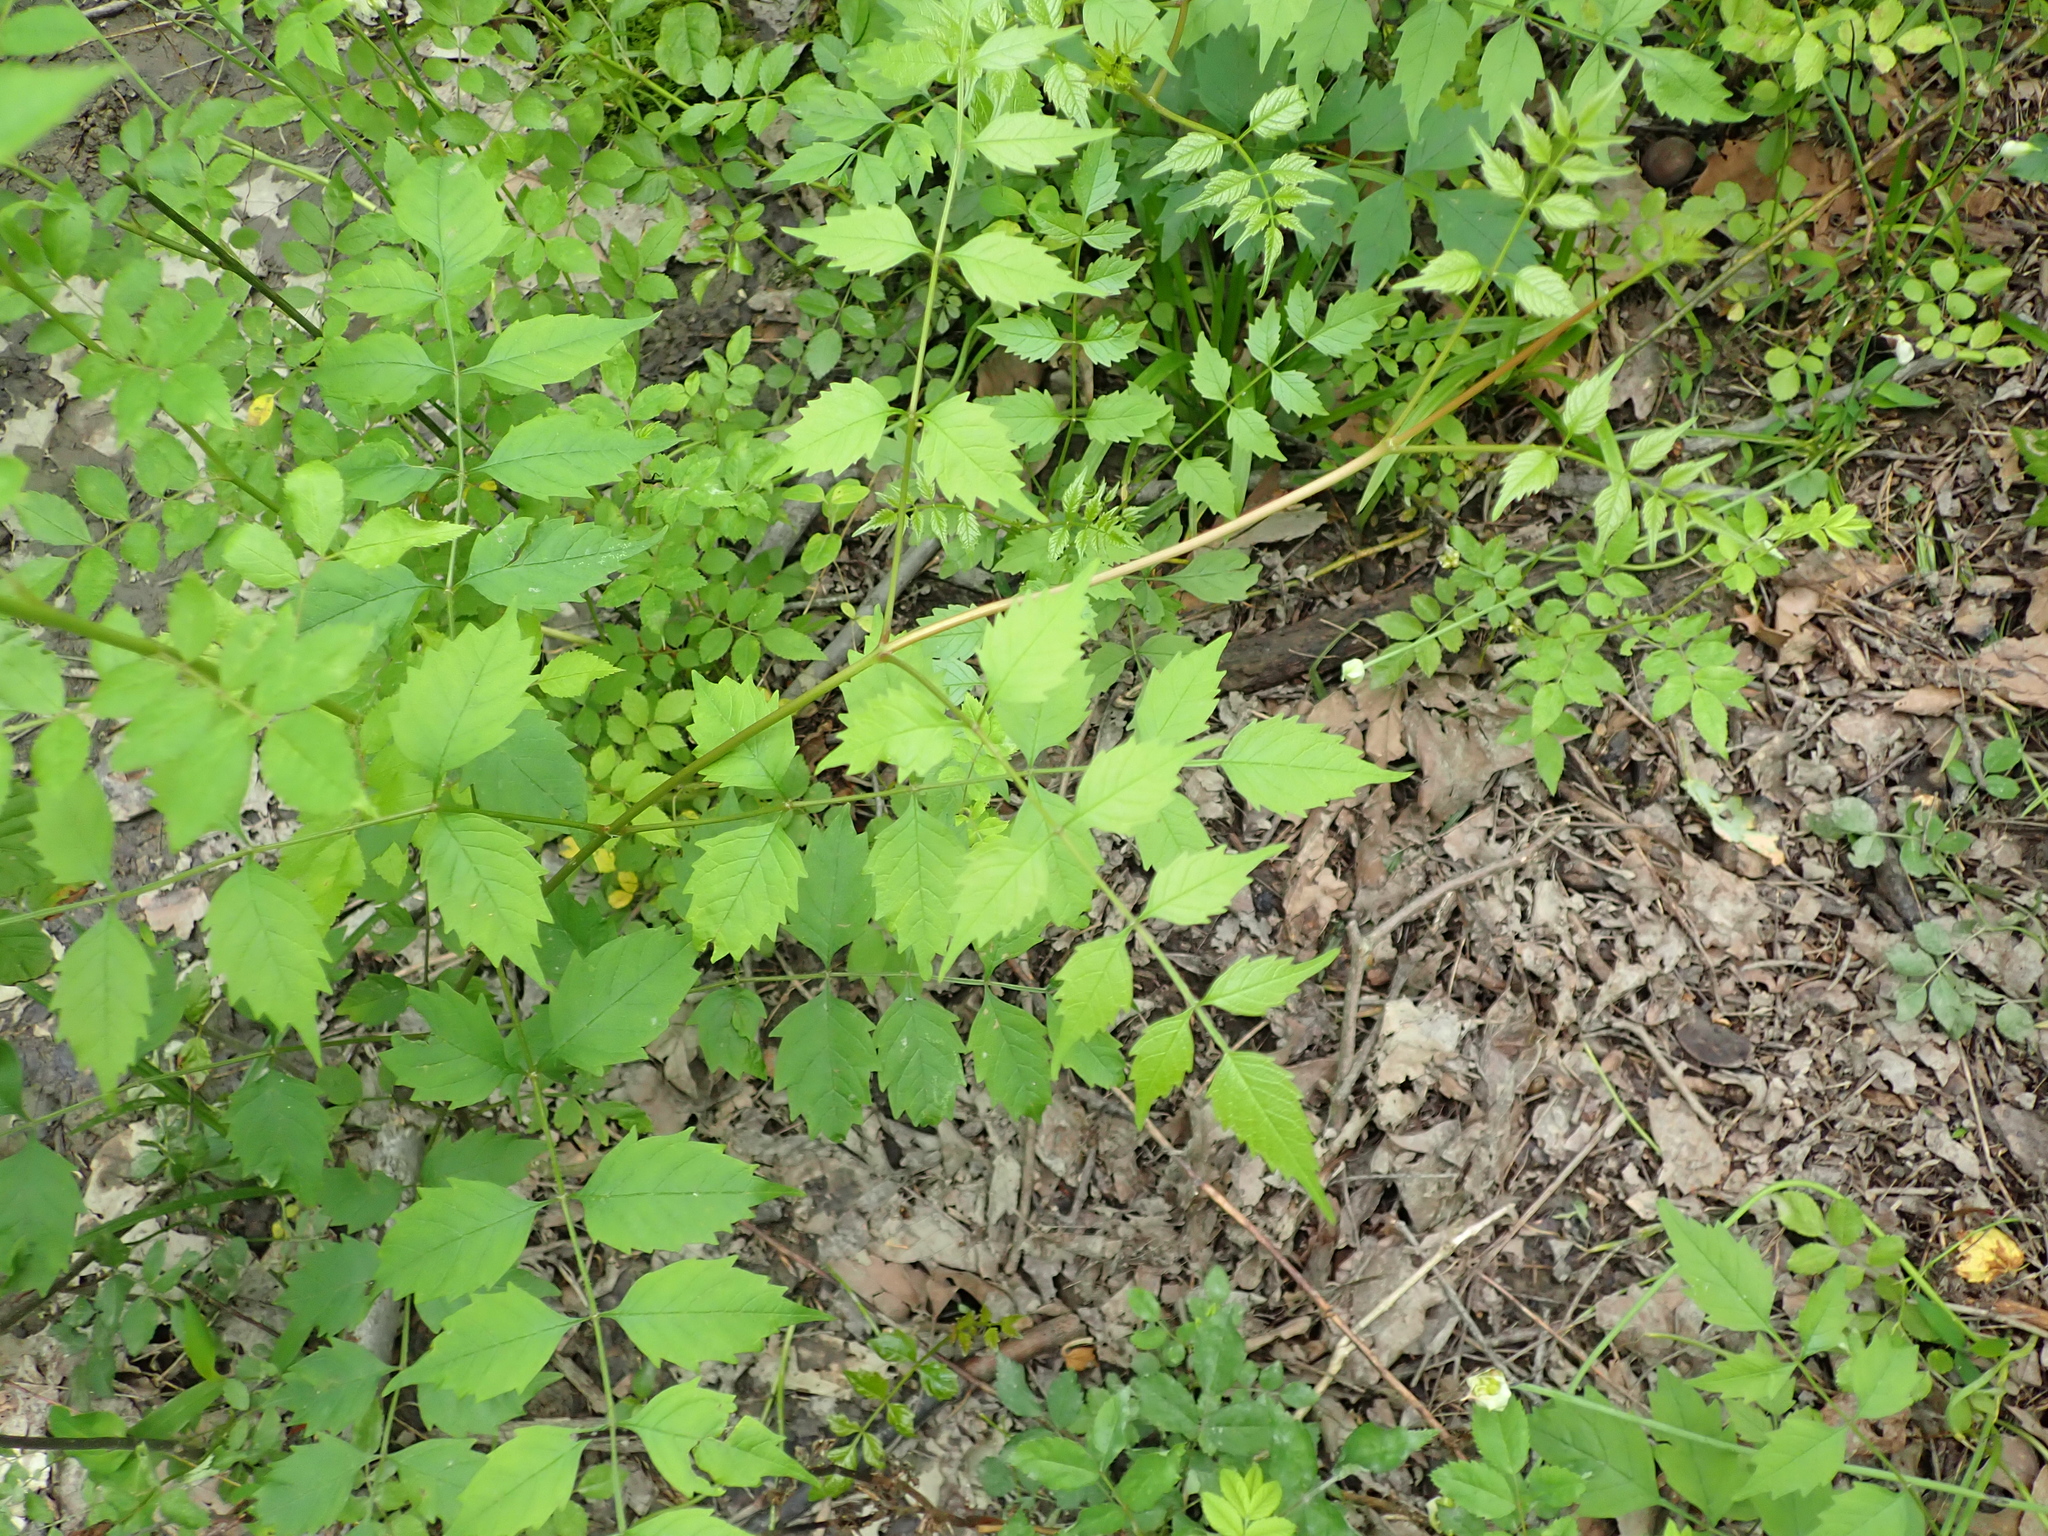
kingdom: Plantae
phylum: Tracheophyta
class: Magnoliopsida
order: Lamiales
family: Bignoniaceae
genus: Campsis
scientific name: Campsis radicans
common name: Trumpet-creeper
